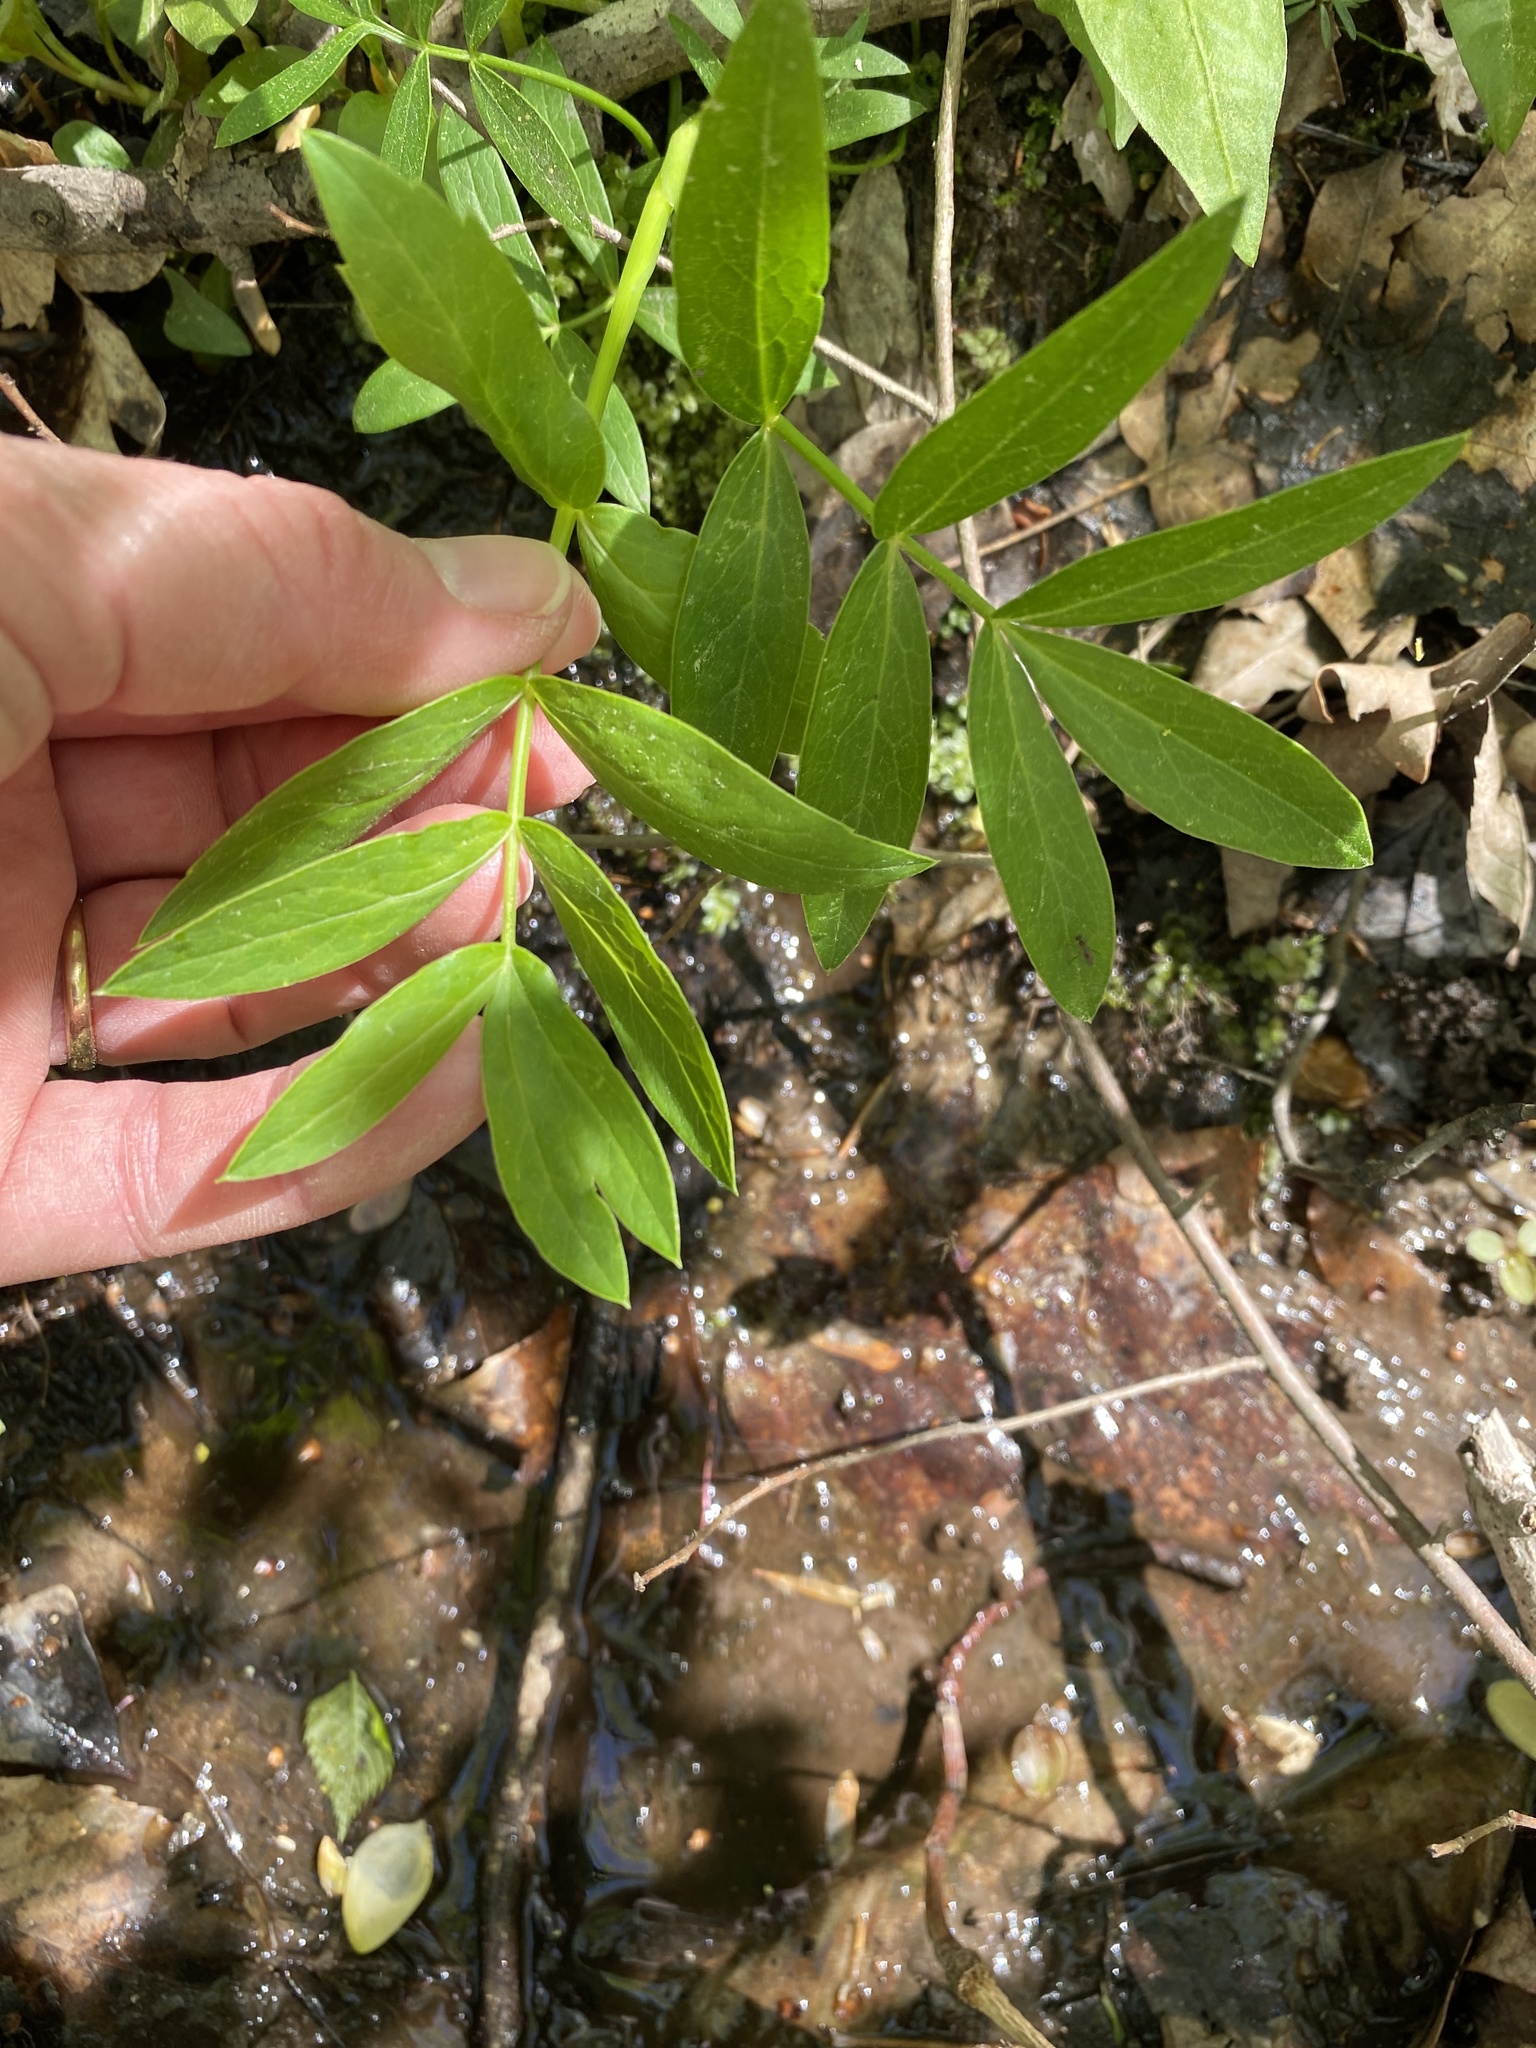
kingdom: Plantae
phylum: Tracheophyta
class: Magnoliopsida
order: Apiales
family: Apiaceae
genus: Oxypolis
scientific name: Oxypolis rigidior
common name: Cowbane
